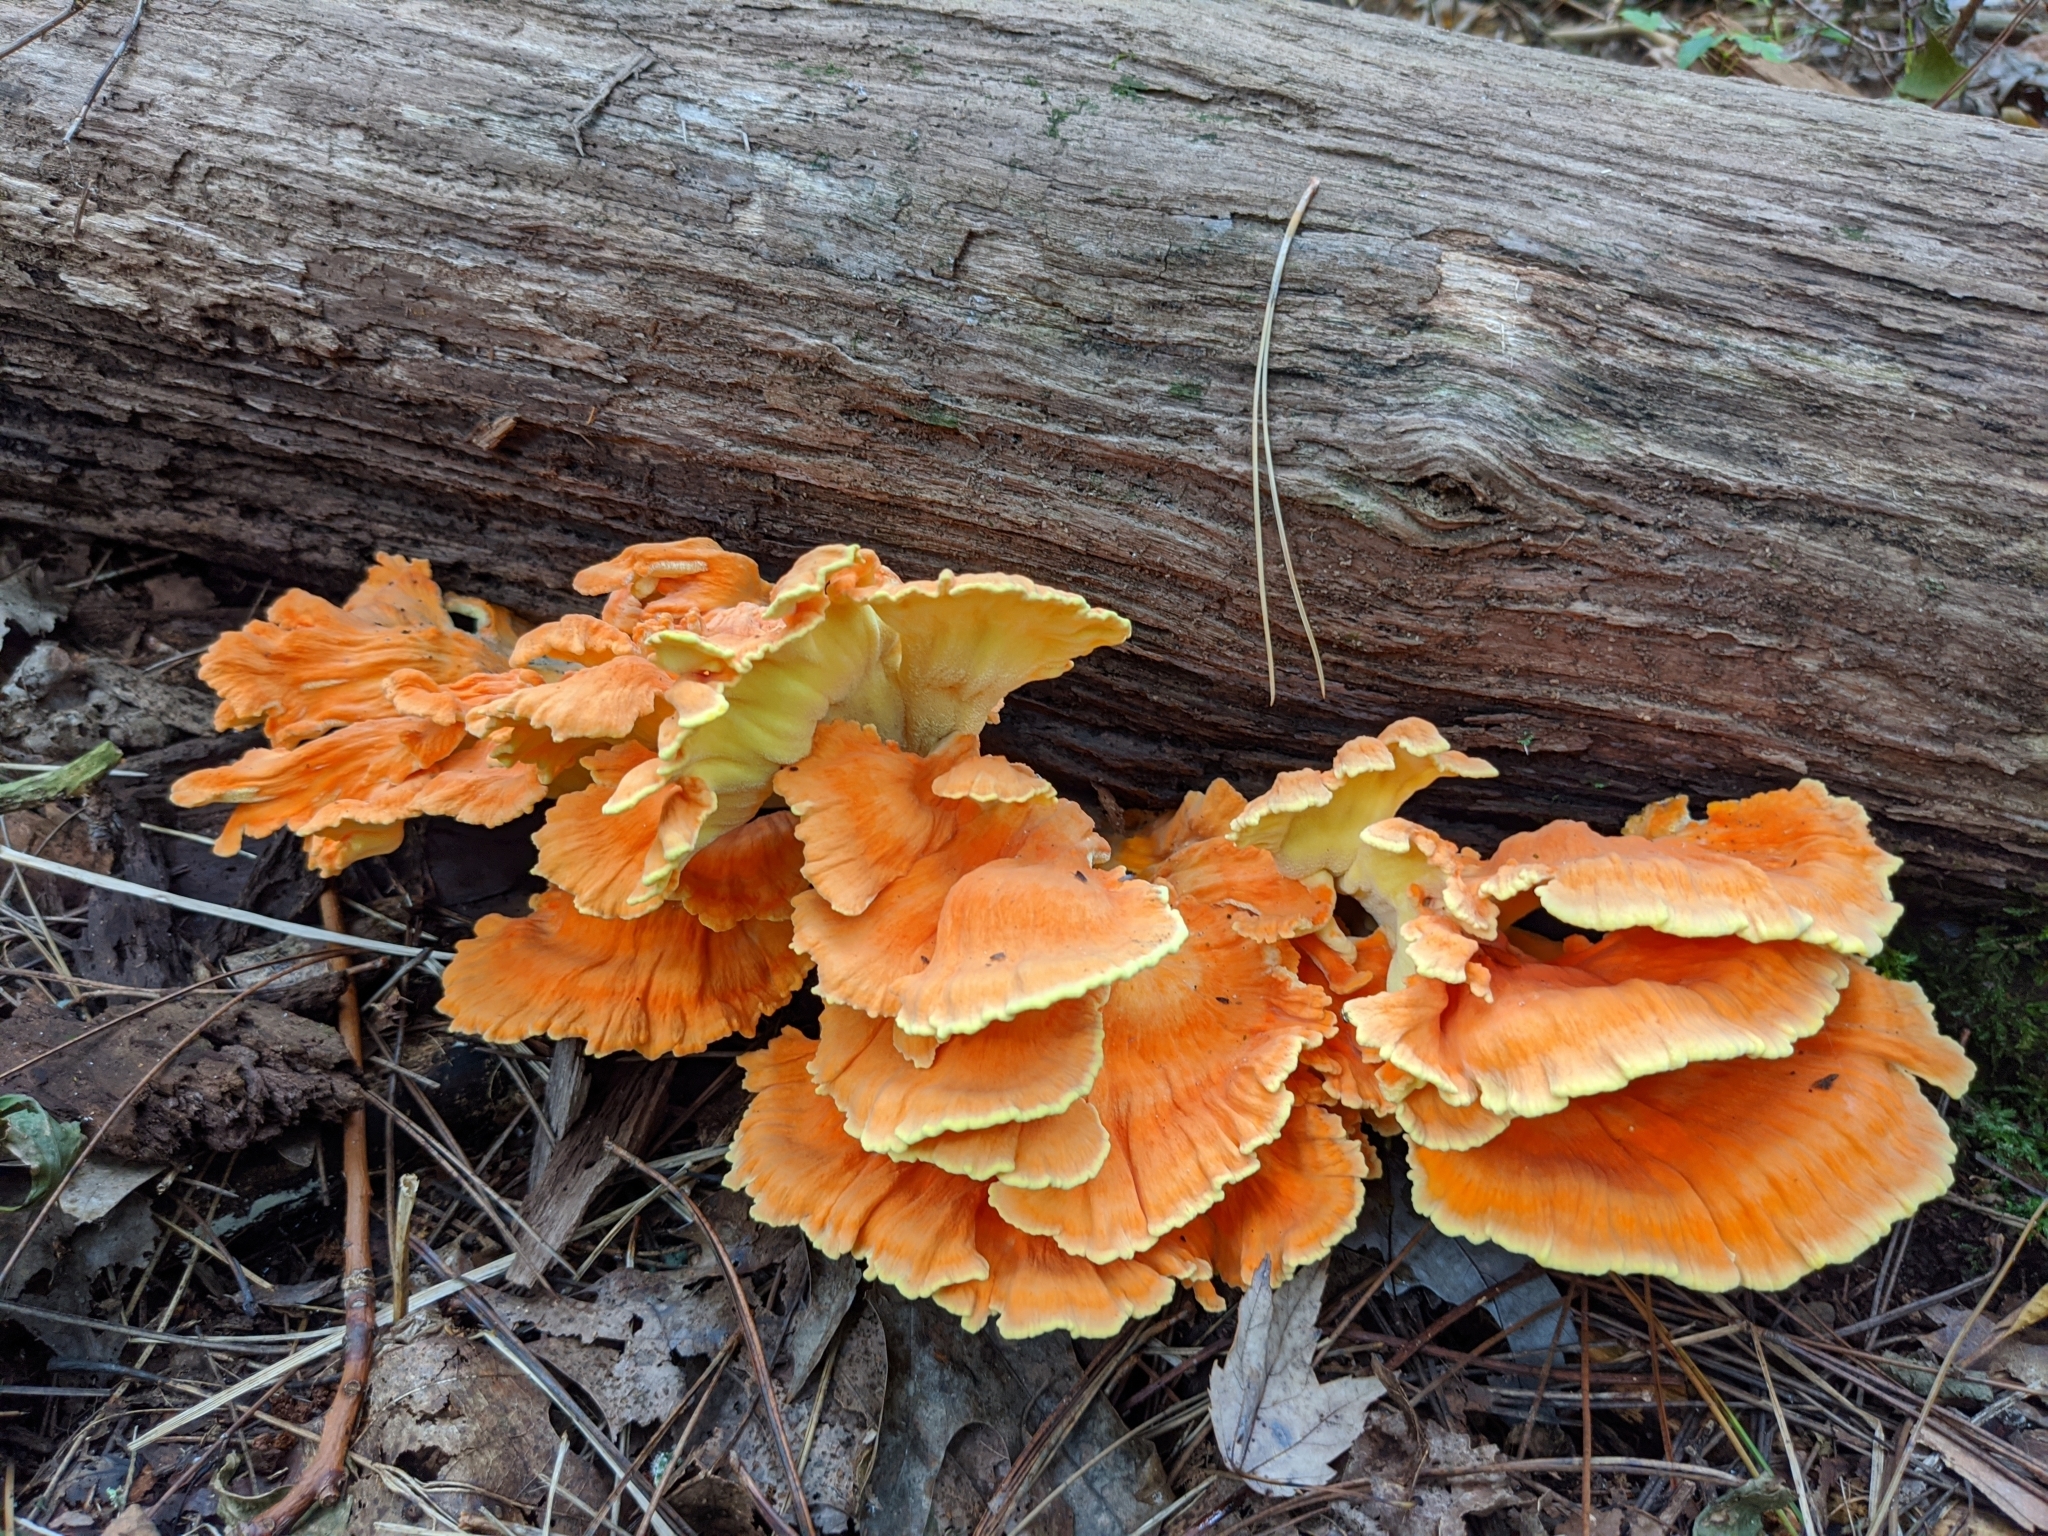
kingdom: Fungi
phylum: Basidiomycota
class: Agaricomycetes
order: Polyporales
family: Laetiporaceae
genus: Laetiporus
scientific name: Laetiporus sulphureus
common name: Chicken of the woods
